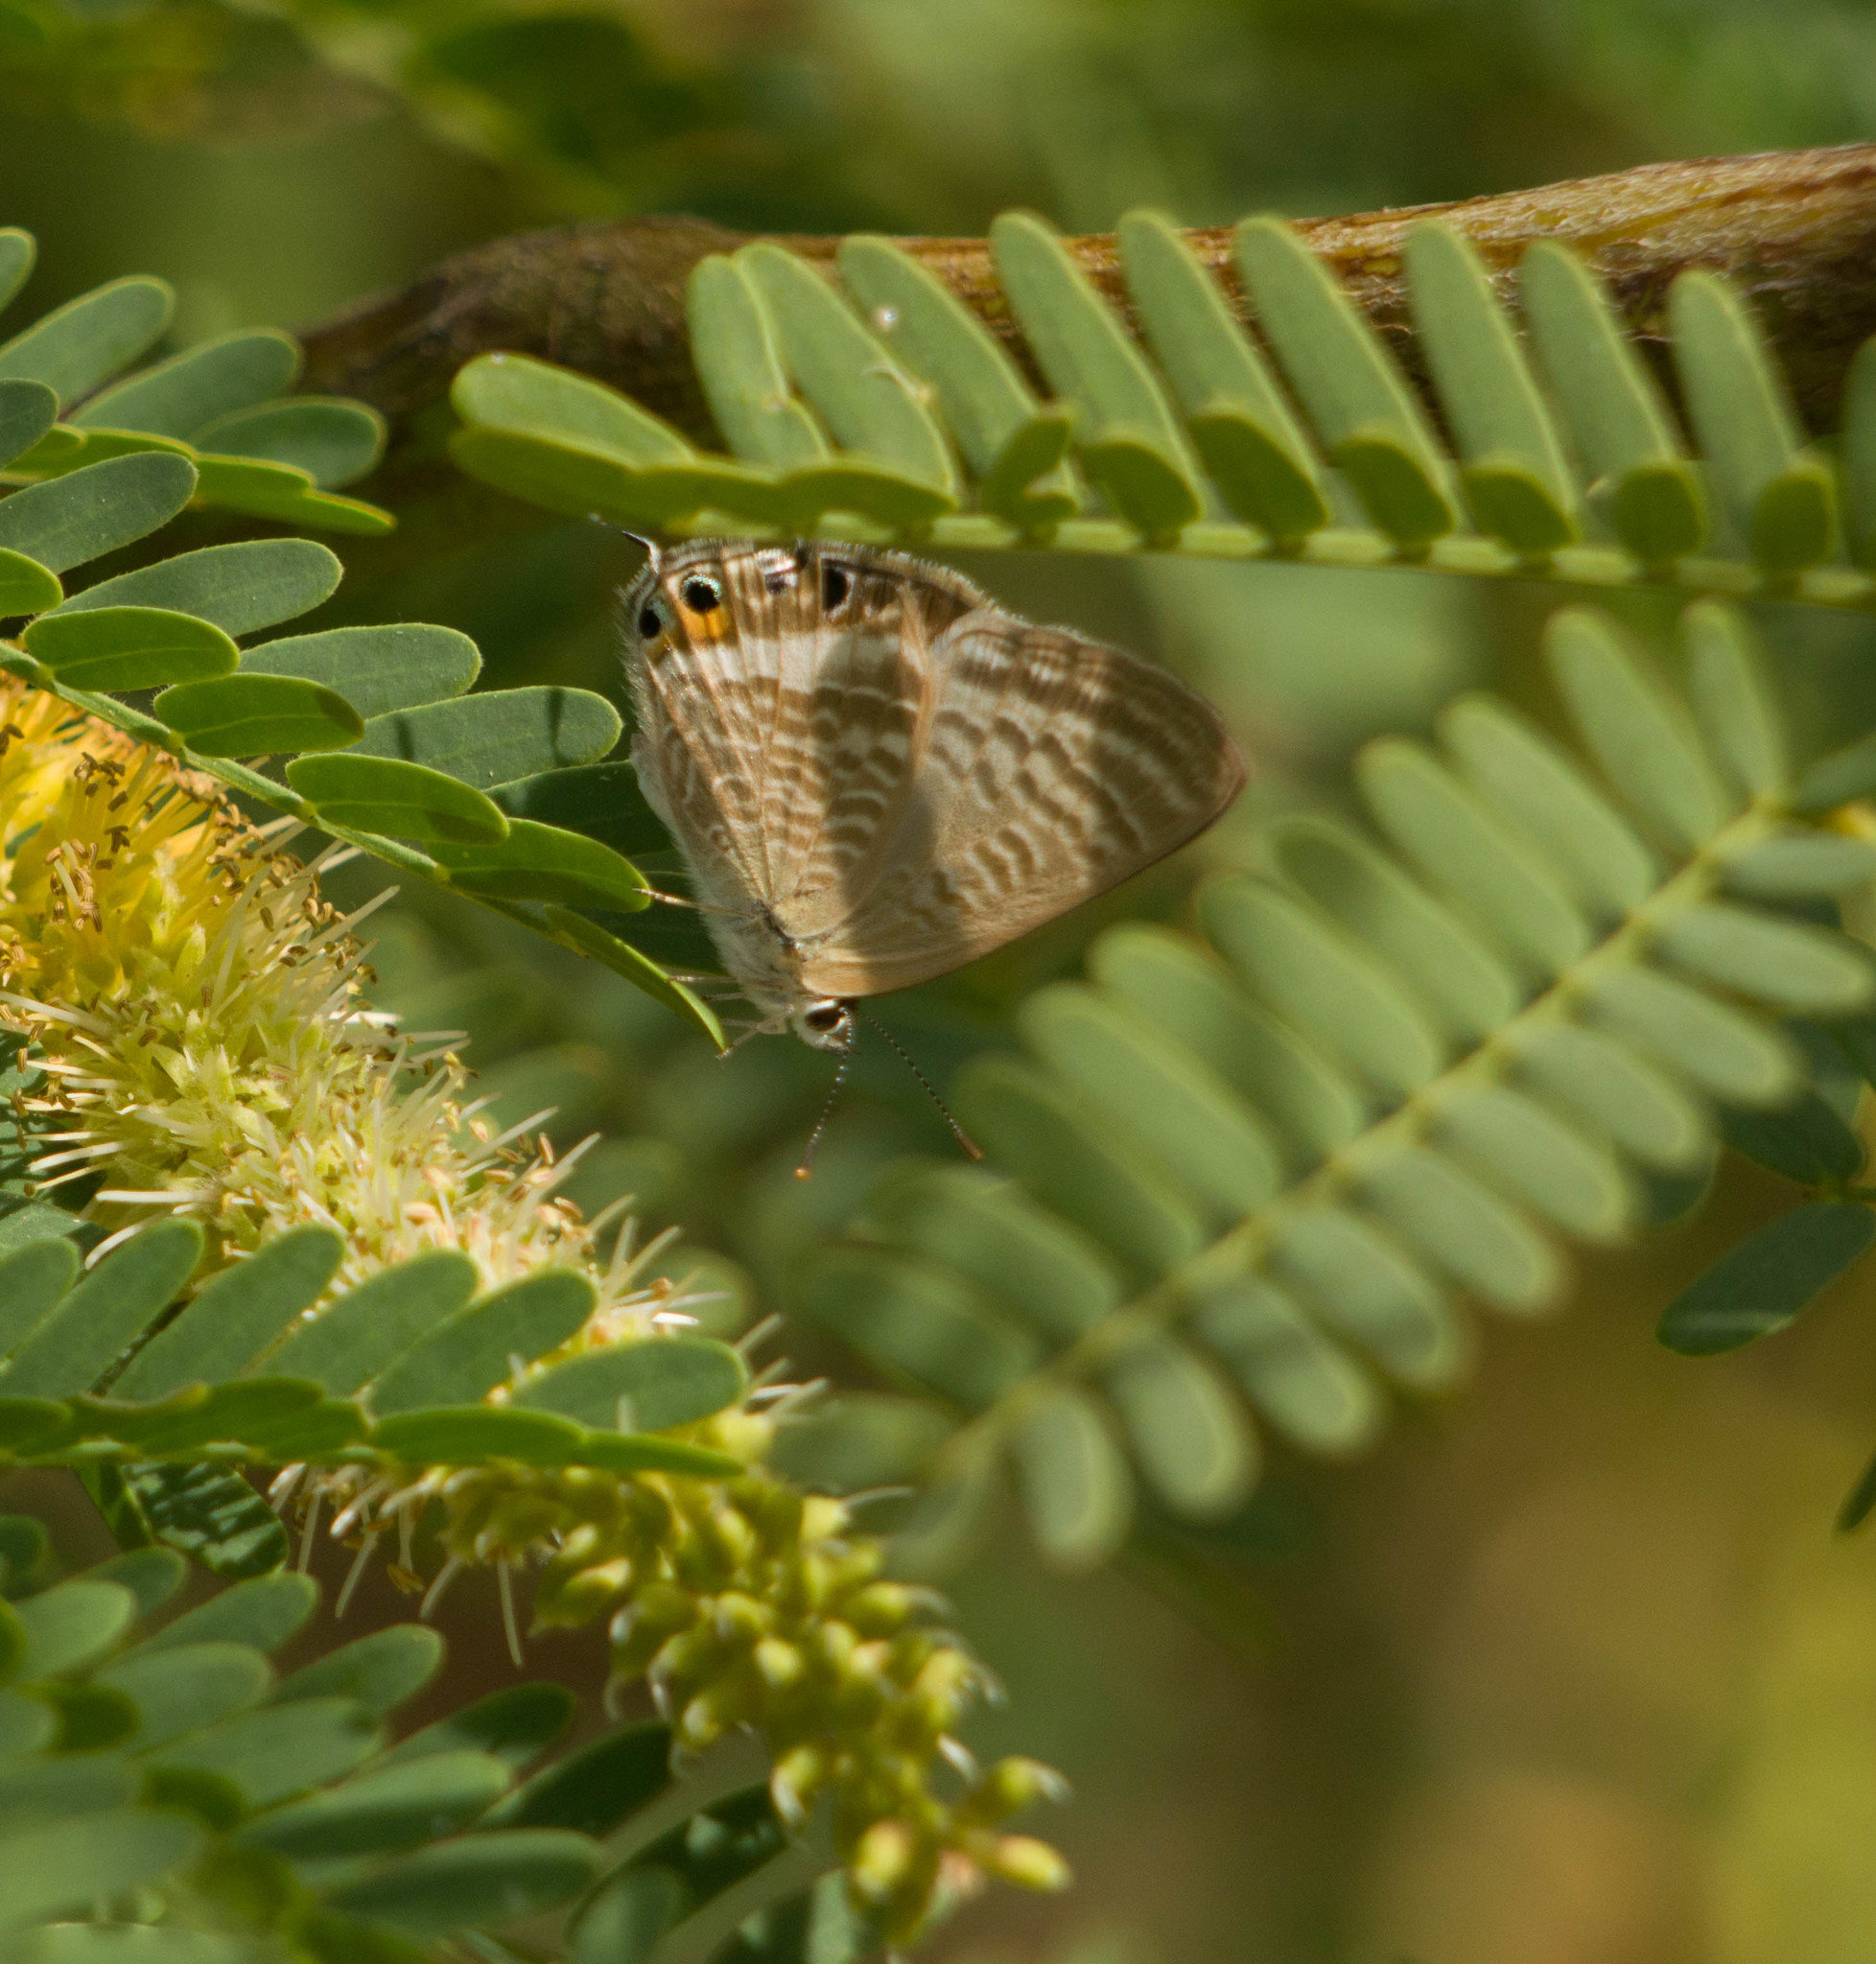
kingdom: Plantae
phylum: Tracheophyta
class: Magnoliopsida
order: Fabales
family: Fabaceae
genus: Prosopis
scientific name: Prosopis juliflora
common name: Mesquite
